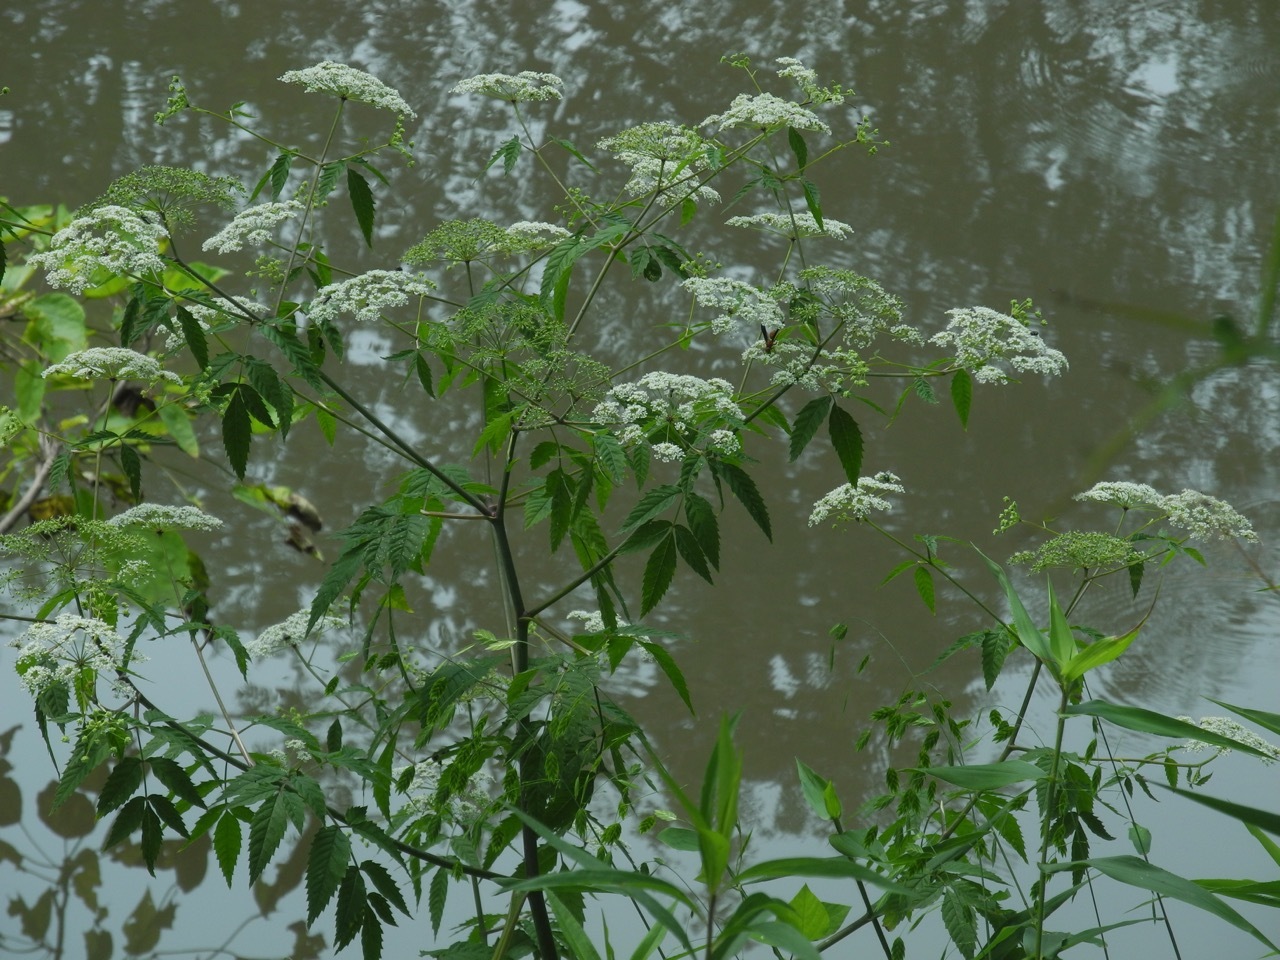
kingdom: Plantae
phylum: Tracheophyta
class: Magnoliopsida
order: Apiales
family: Apiaceae
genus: Cicuta
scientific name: Cicuta maculata
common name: Spotted cowbane
